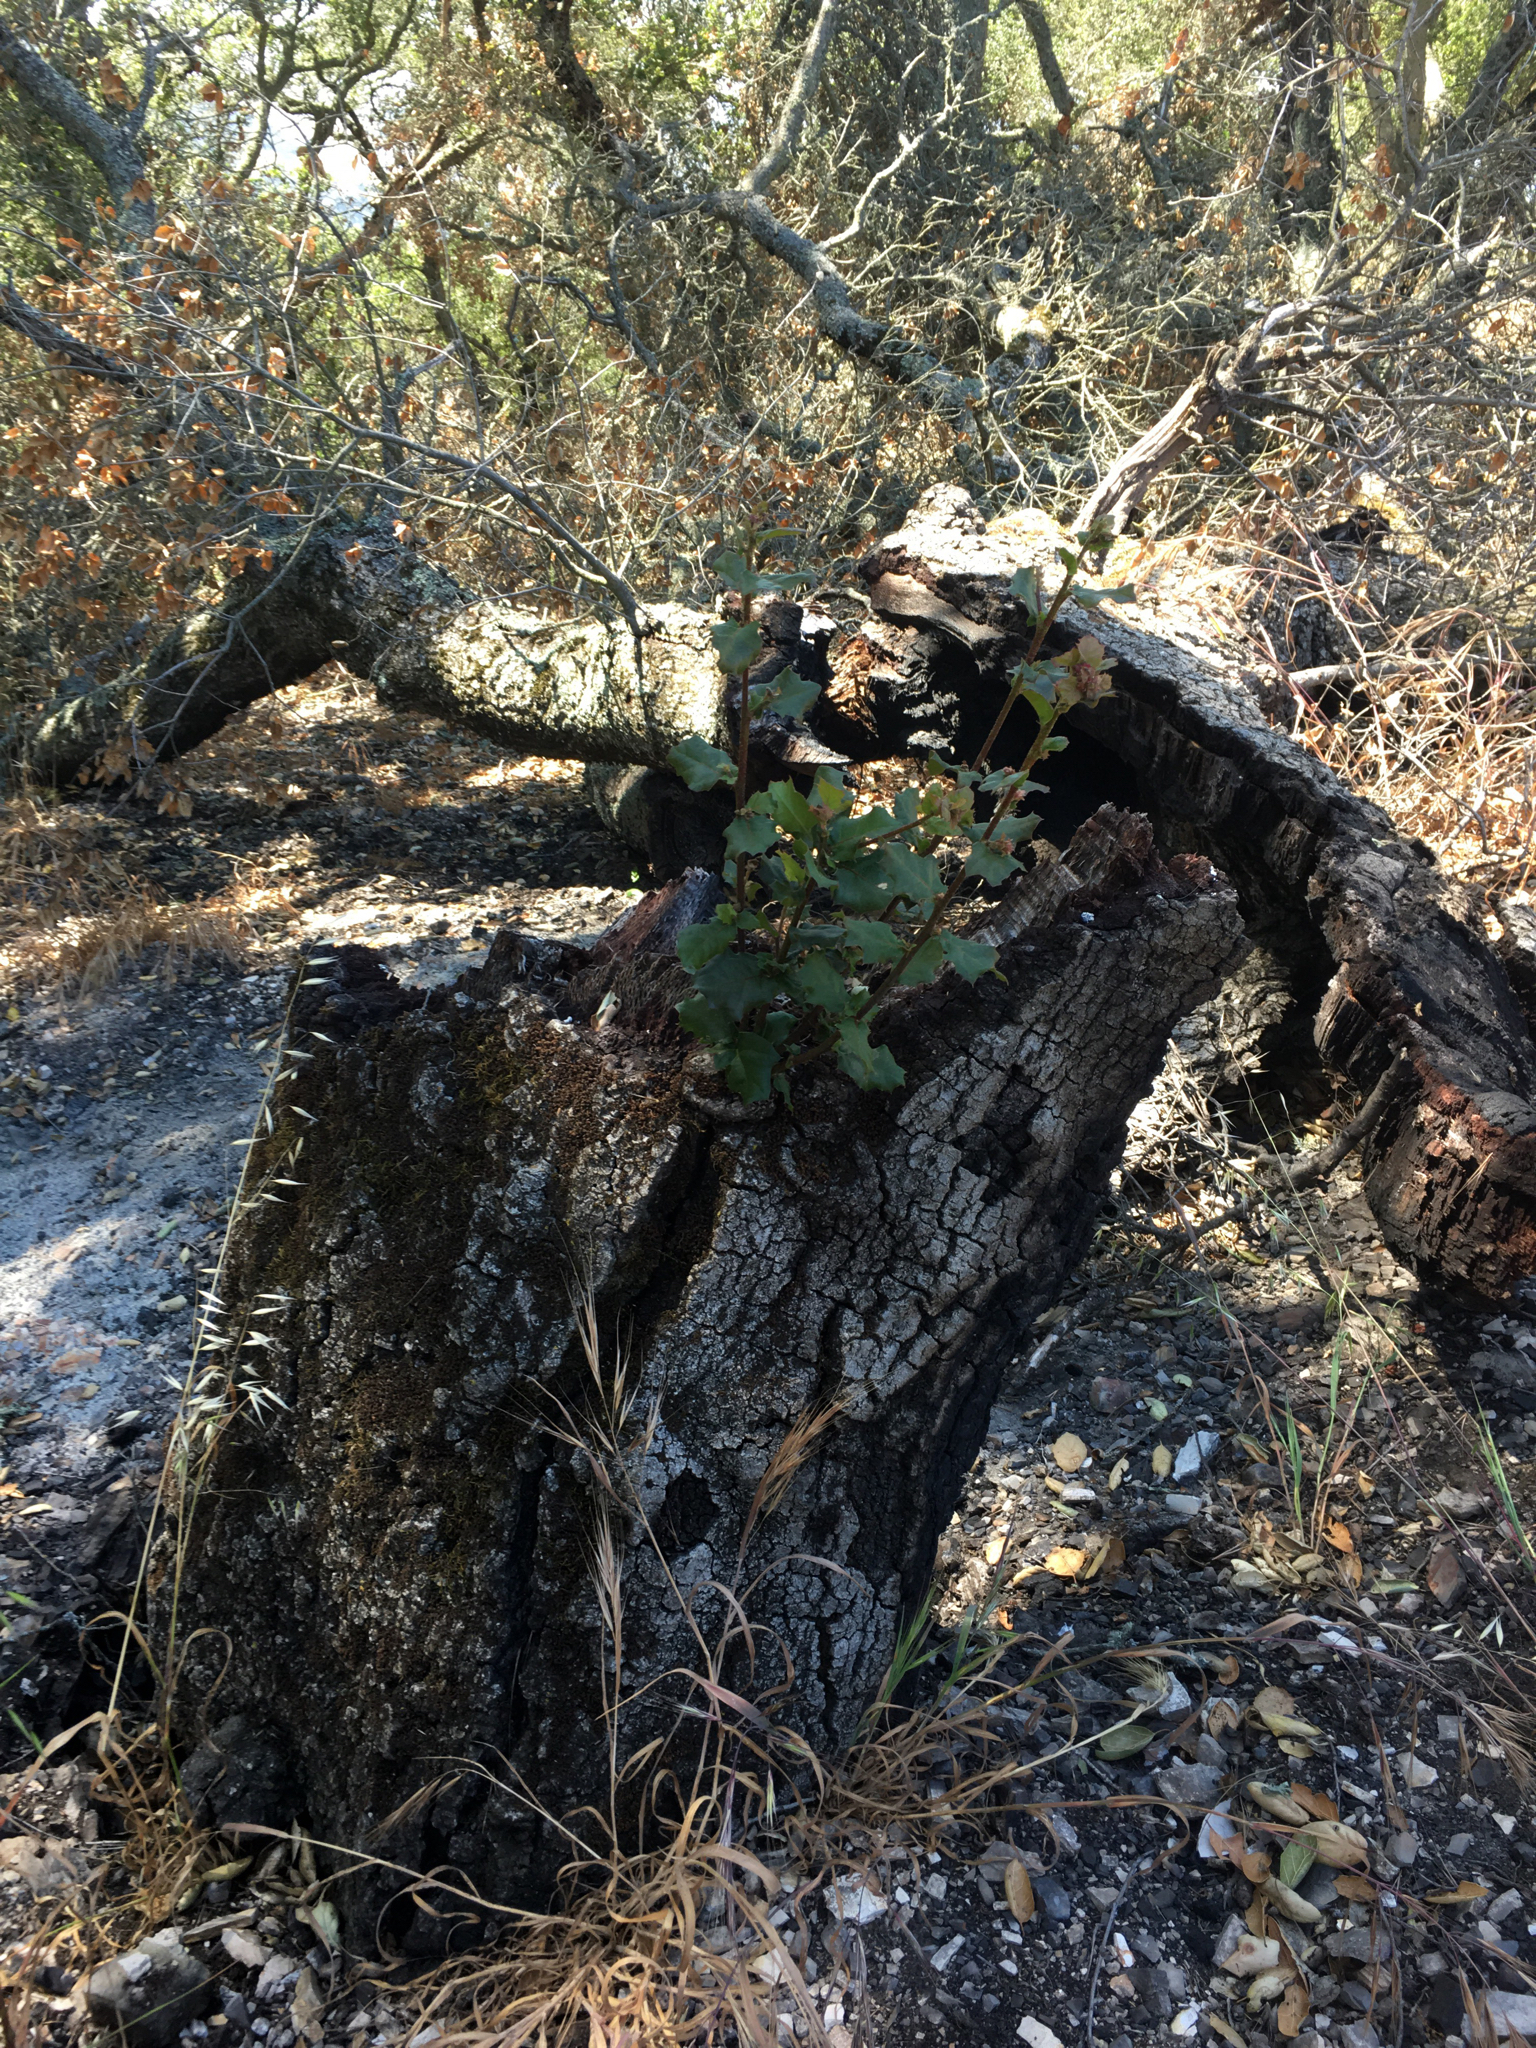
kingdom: Plantae
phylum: Tracheophyta
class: Magnoliopsida
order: Fagales
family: Fagaceae
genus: Quercus
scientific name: Quercus agrifolia
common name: California live oak
